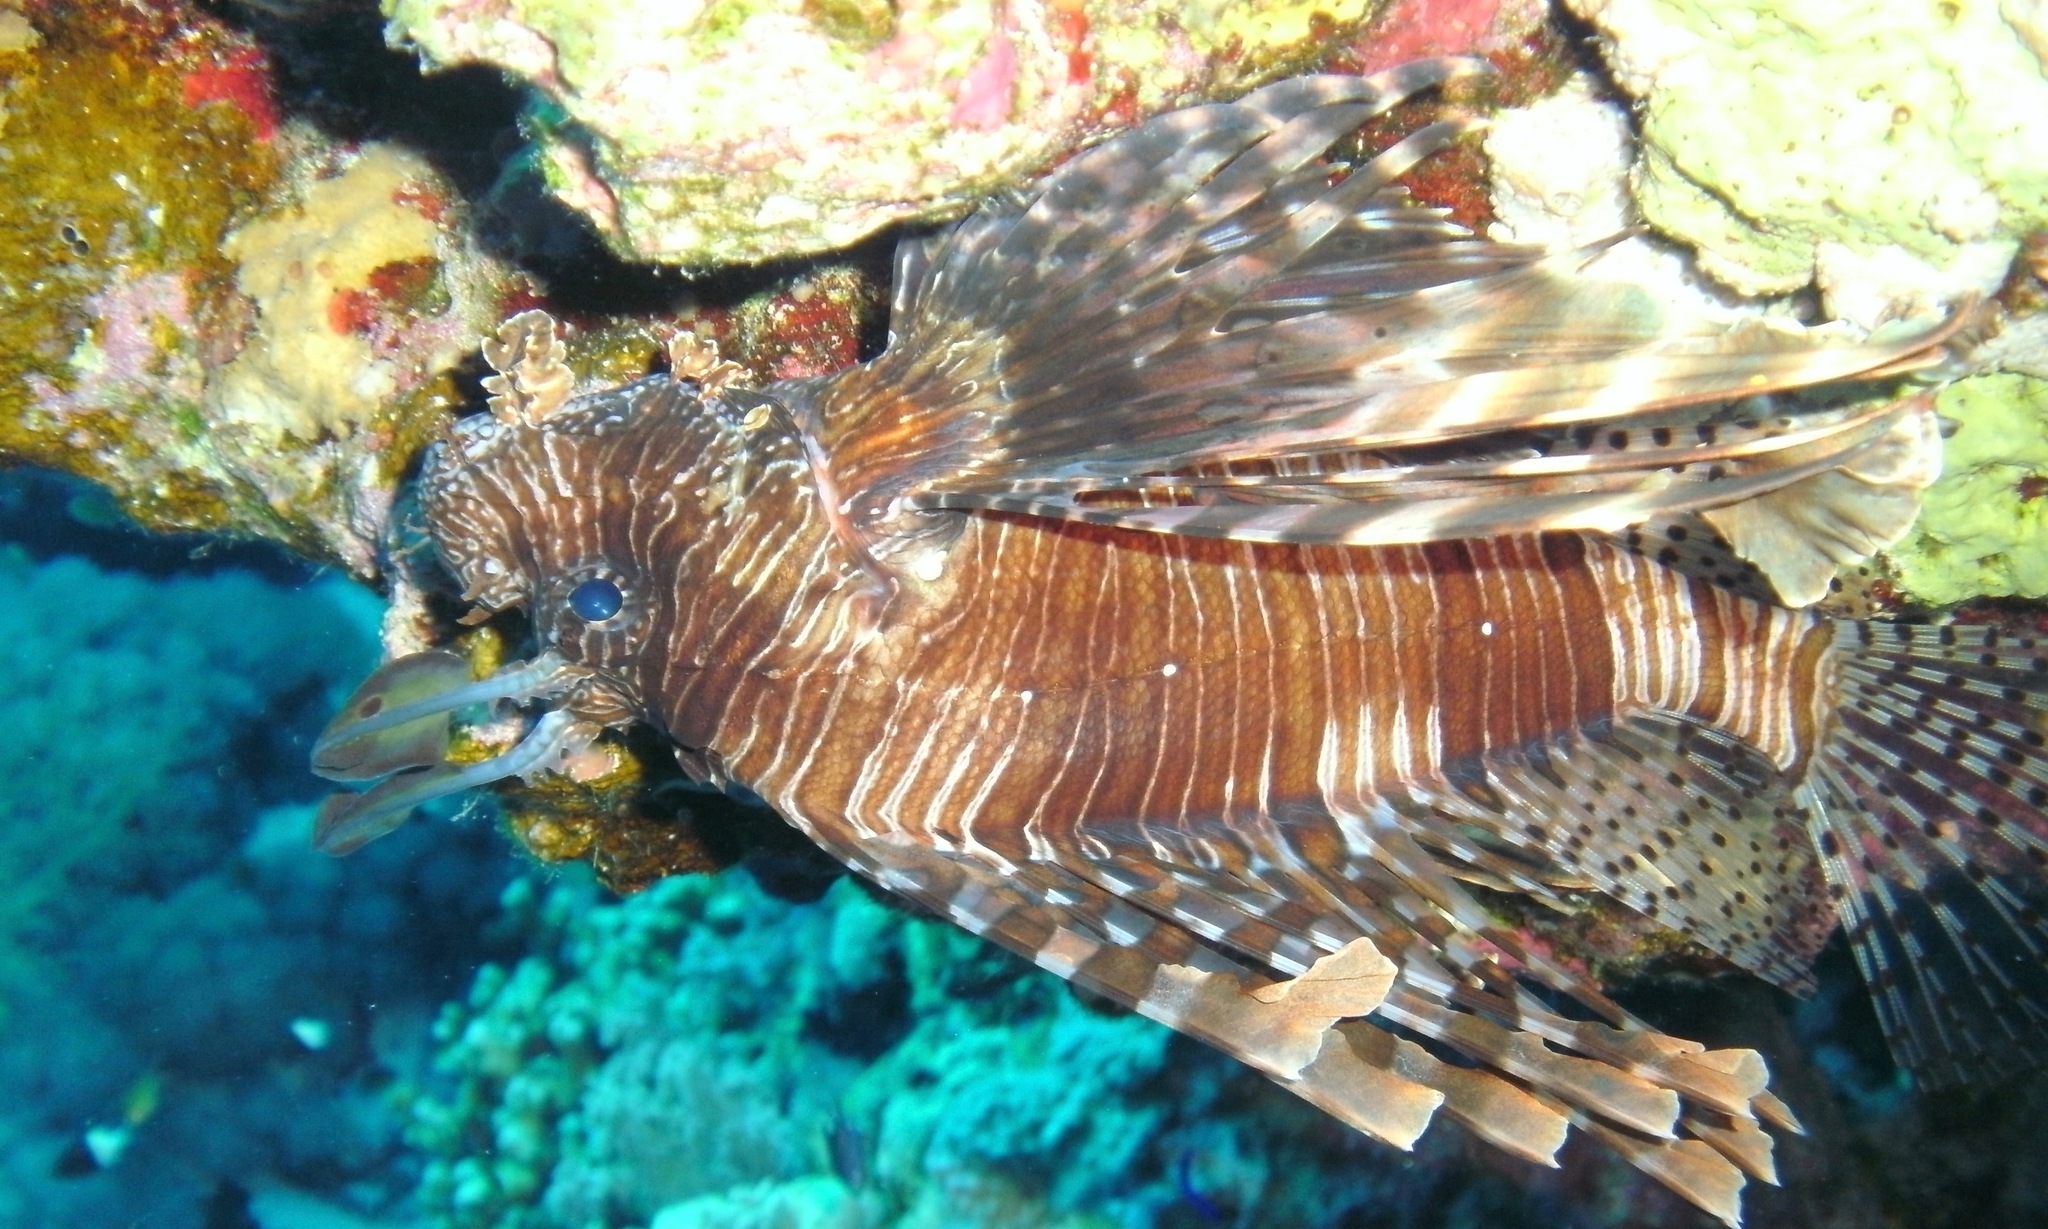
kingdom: Animalia
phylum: Chordata
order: Scorpaeniformes
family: Scorpaenidae
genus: Pterois
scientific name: Pterois miles
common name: Devil firefish
